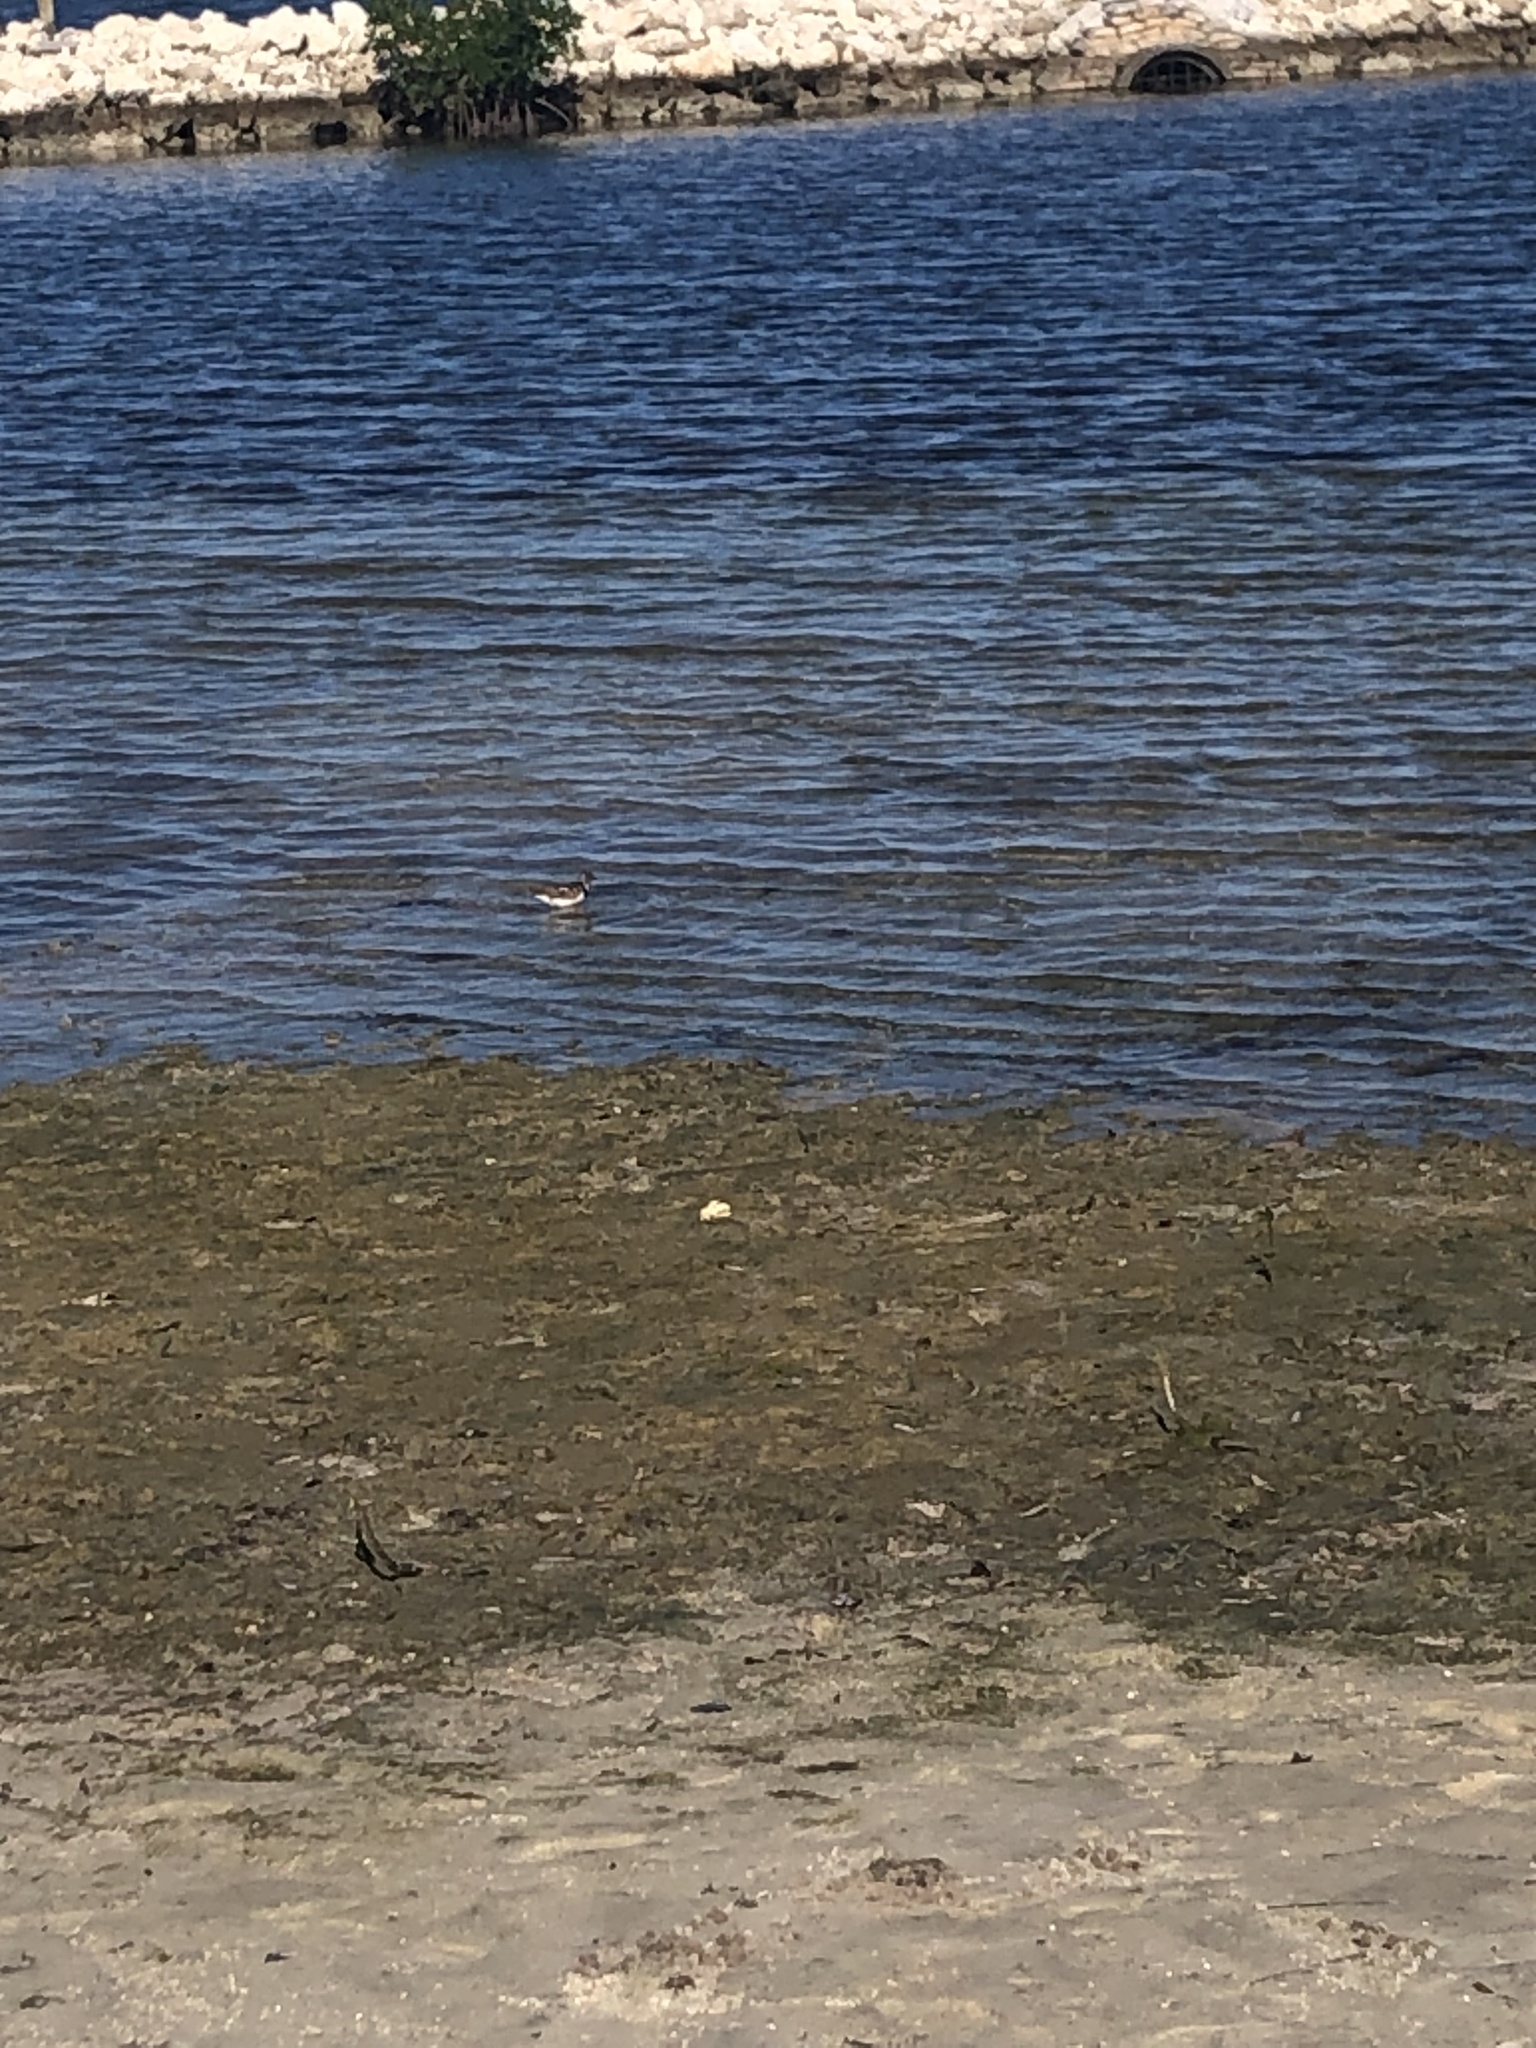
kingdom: Animalia
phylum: Chordata
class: Aves
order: Charadriiformes
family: Scolopacidae
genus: Arenaria
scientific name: Arenaria interpres
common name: Ruddy turnstone
